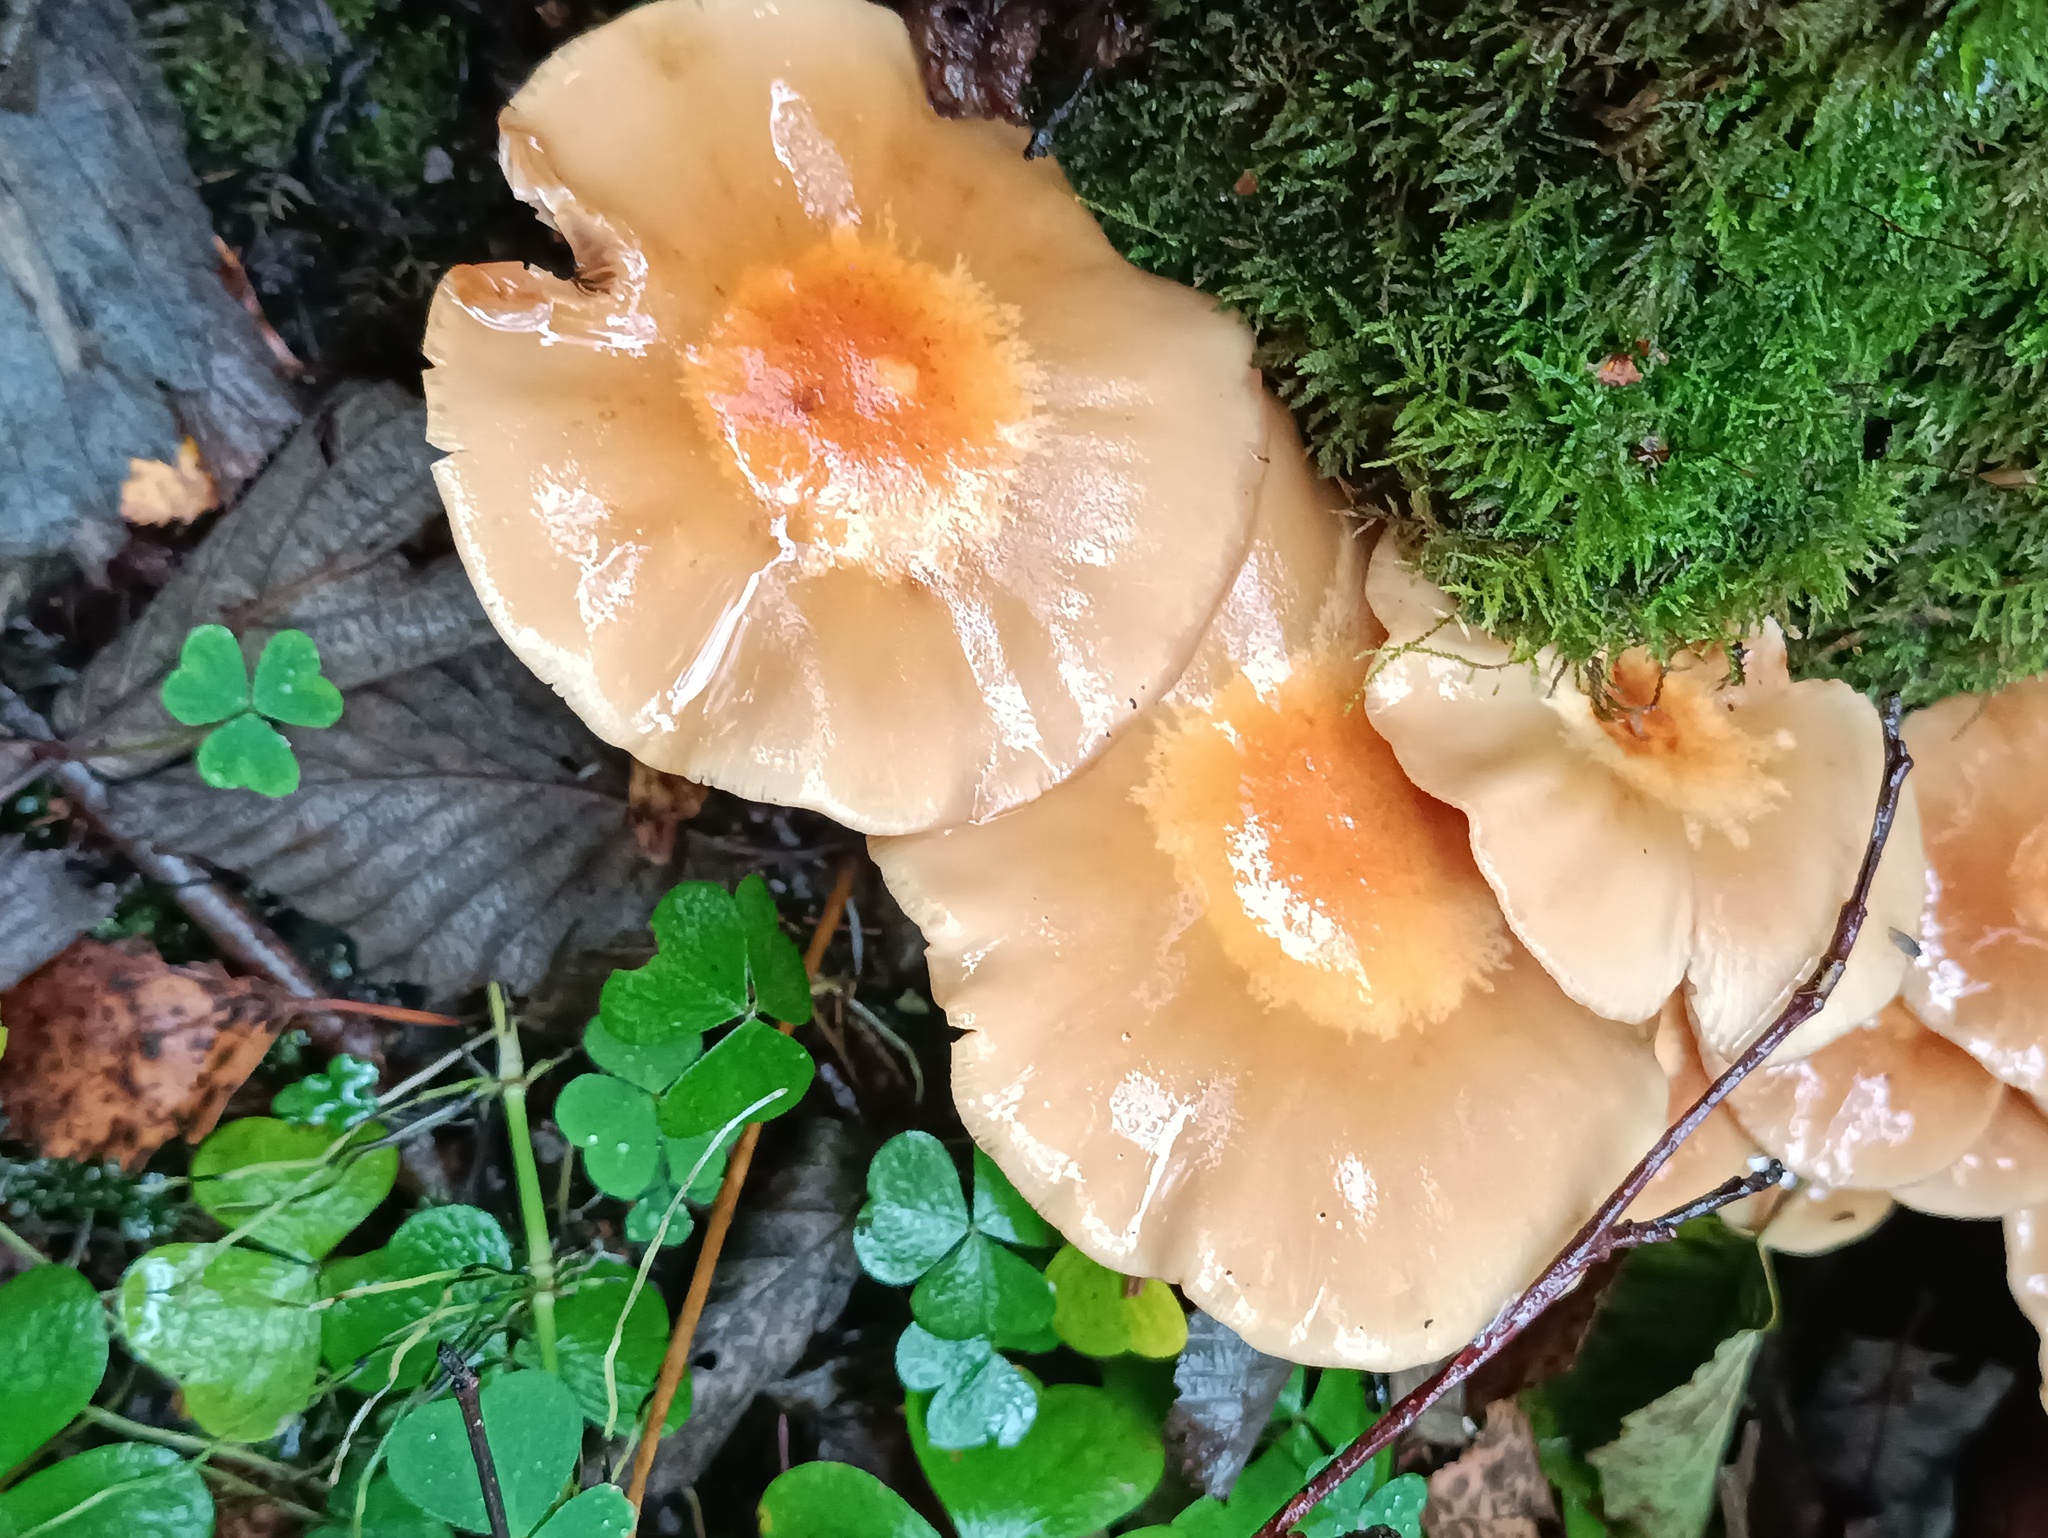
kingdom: Fungi
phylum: Basidiomycota
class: Agaricomycetes
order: Agaricales
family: Strophariaceae
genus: Kuehneromyces
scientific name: Kuehneromyces mutabilis
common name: Sheathed woodtuft
